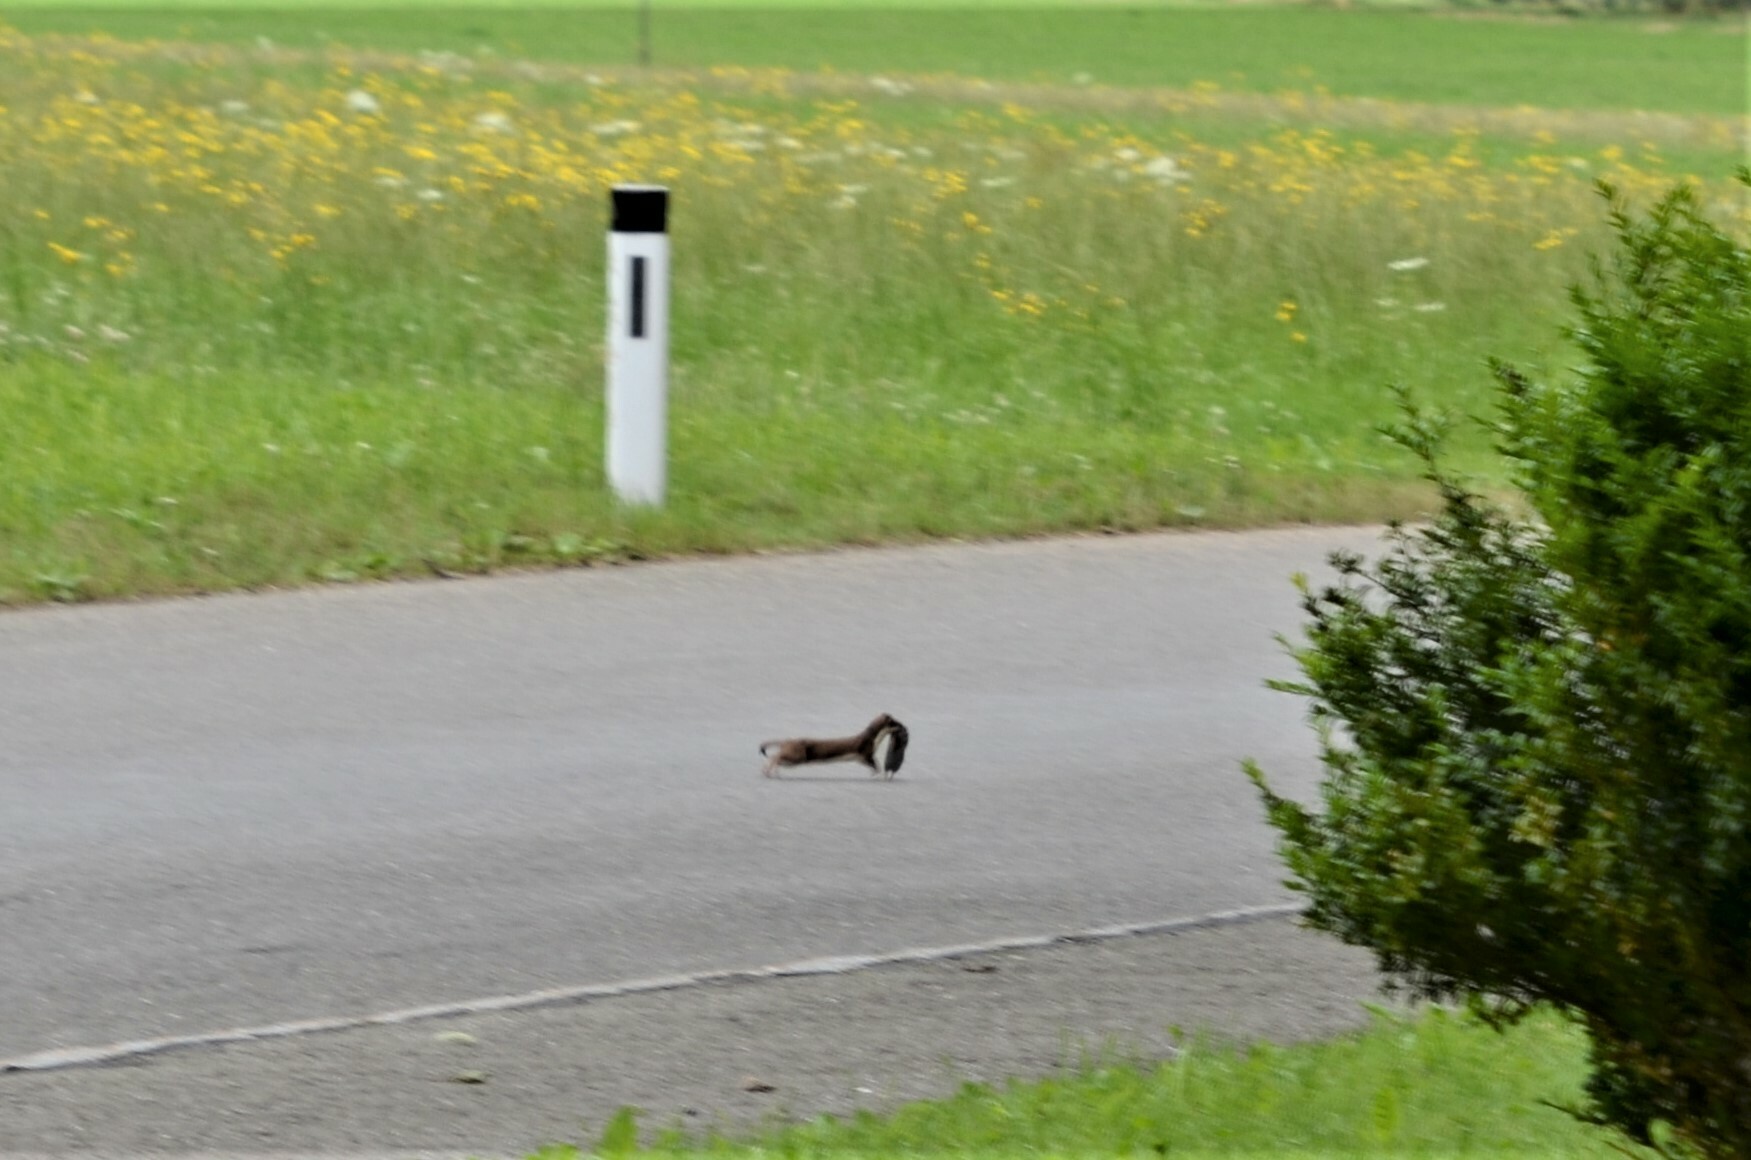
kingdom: Animalia
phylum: Chordata
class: Mammalia
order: Carnivora
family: Mustelidae
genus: Mustela
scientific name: Mustela erminea
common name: Stoat
